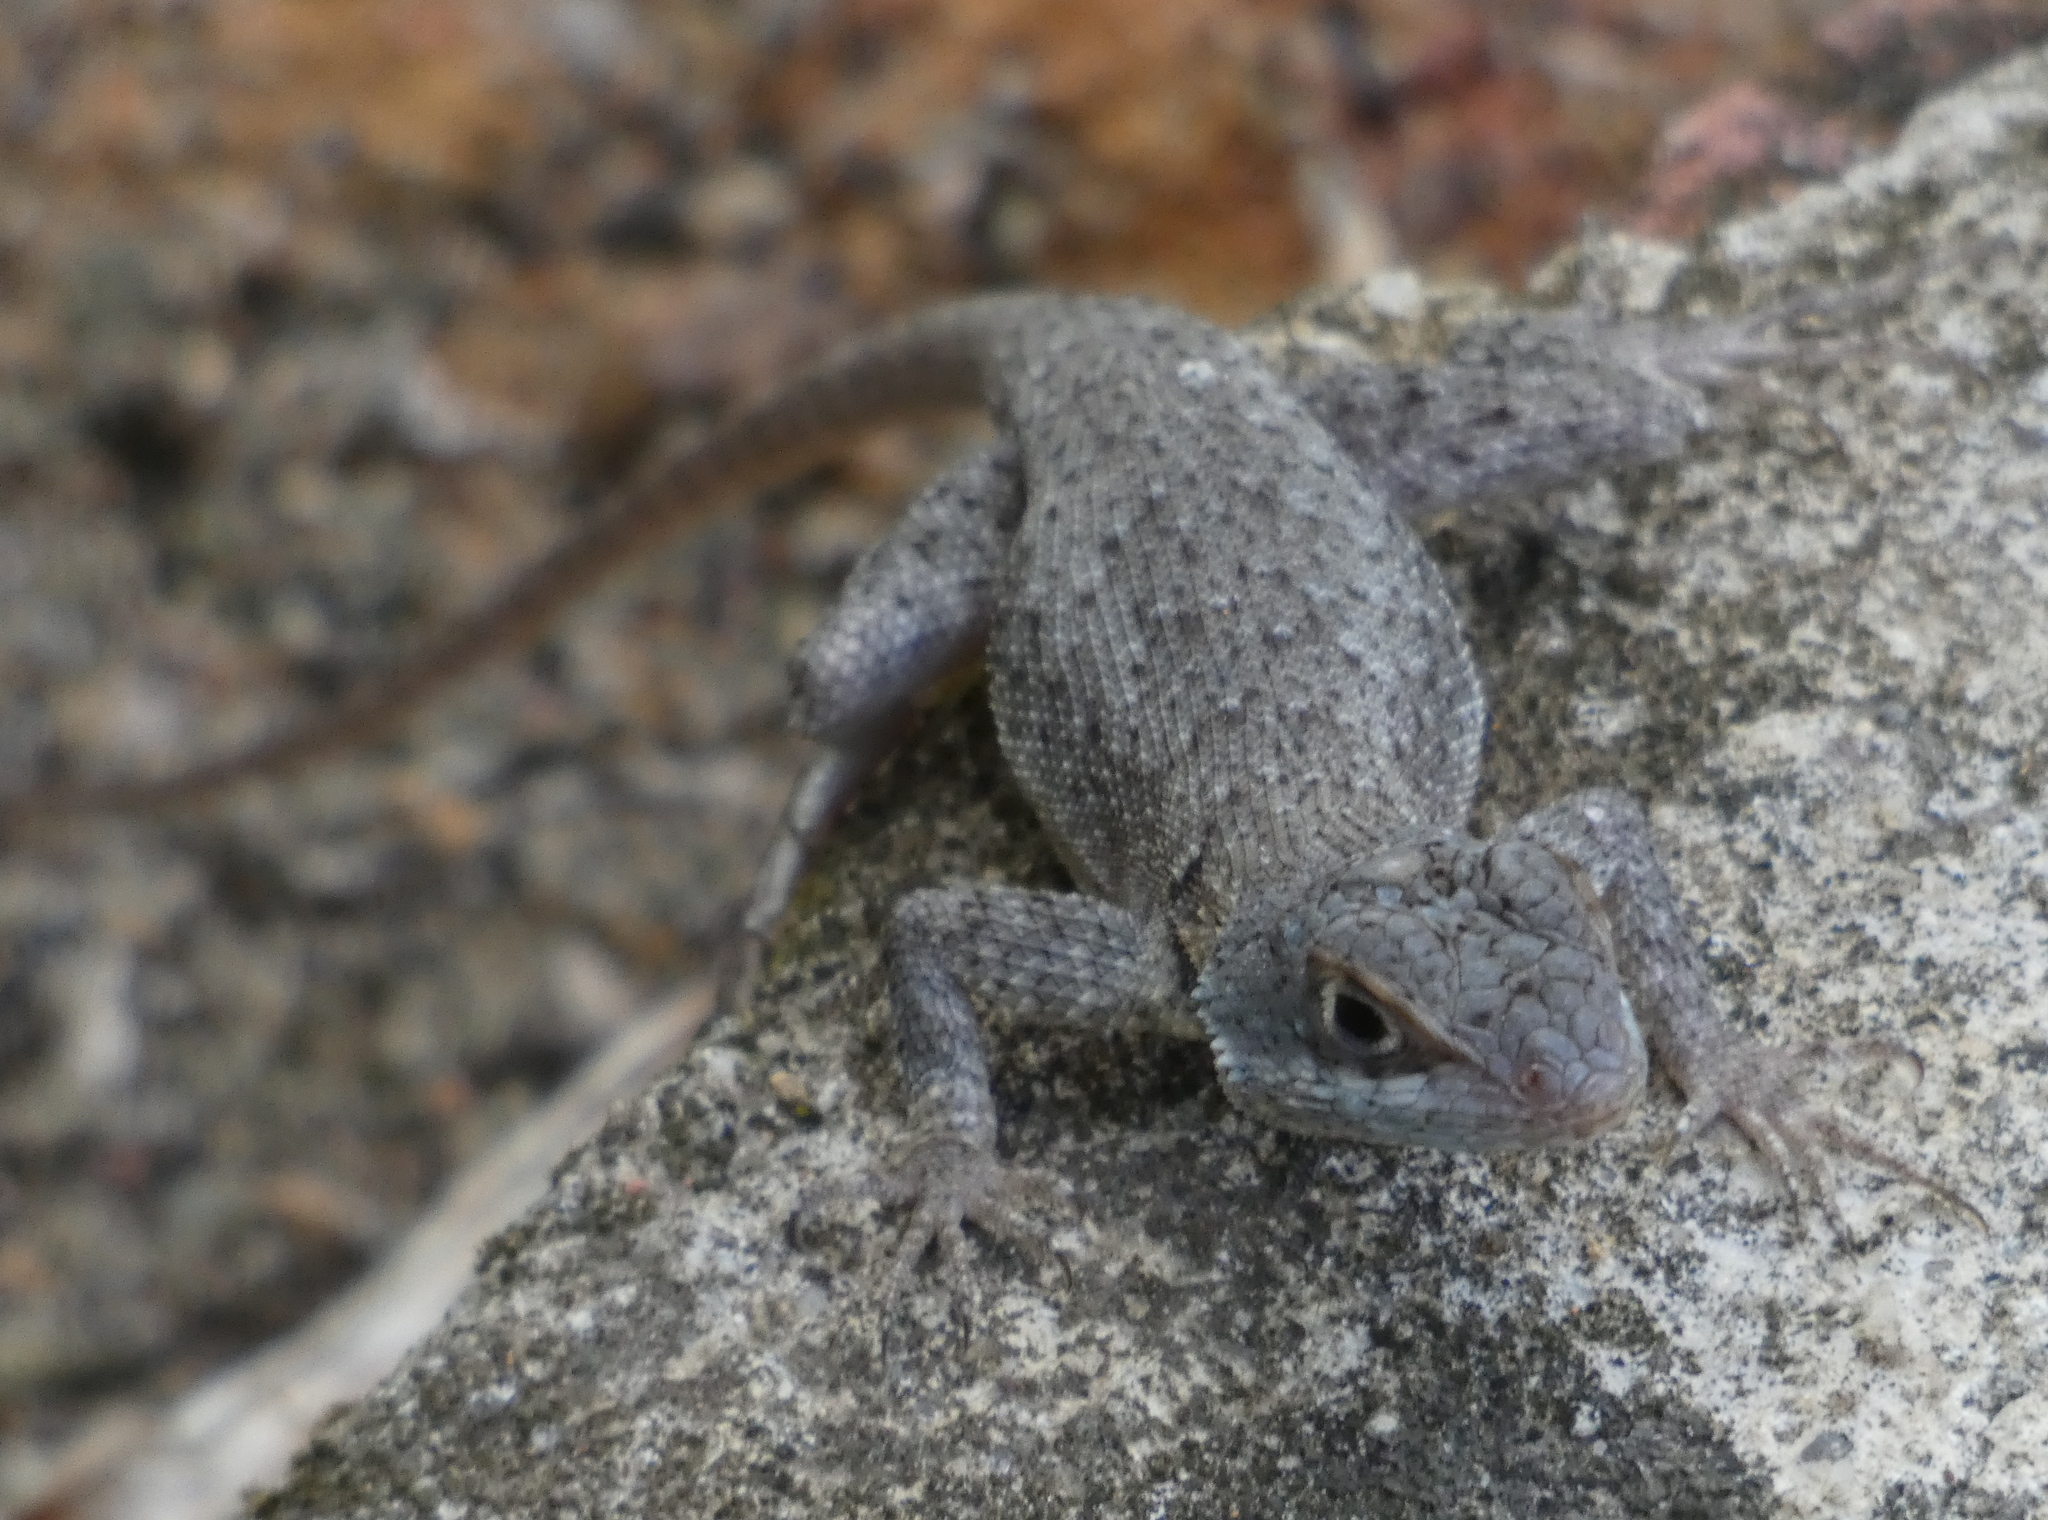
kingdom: Animalia
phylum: Chordata
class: Squamata
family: Tropiduridae
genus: Tropidurus
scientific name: Tropidurus hispidus
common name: Peters' lava lizard
